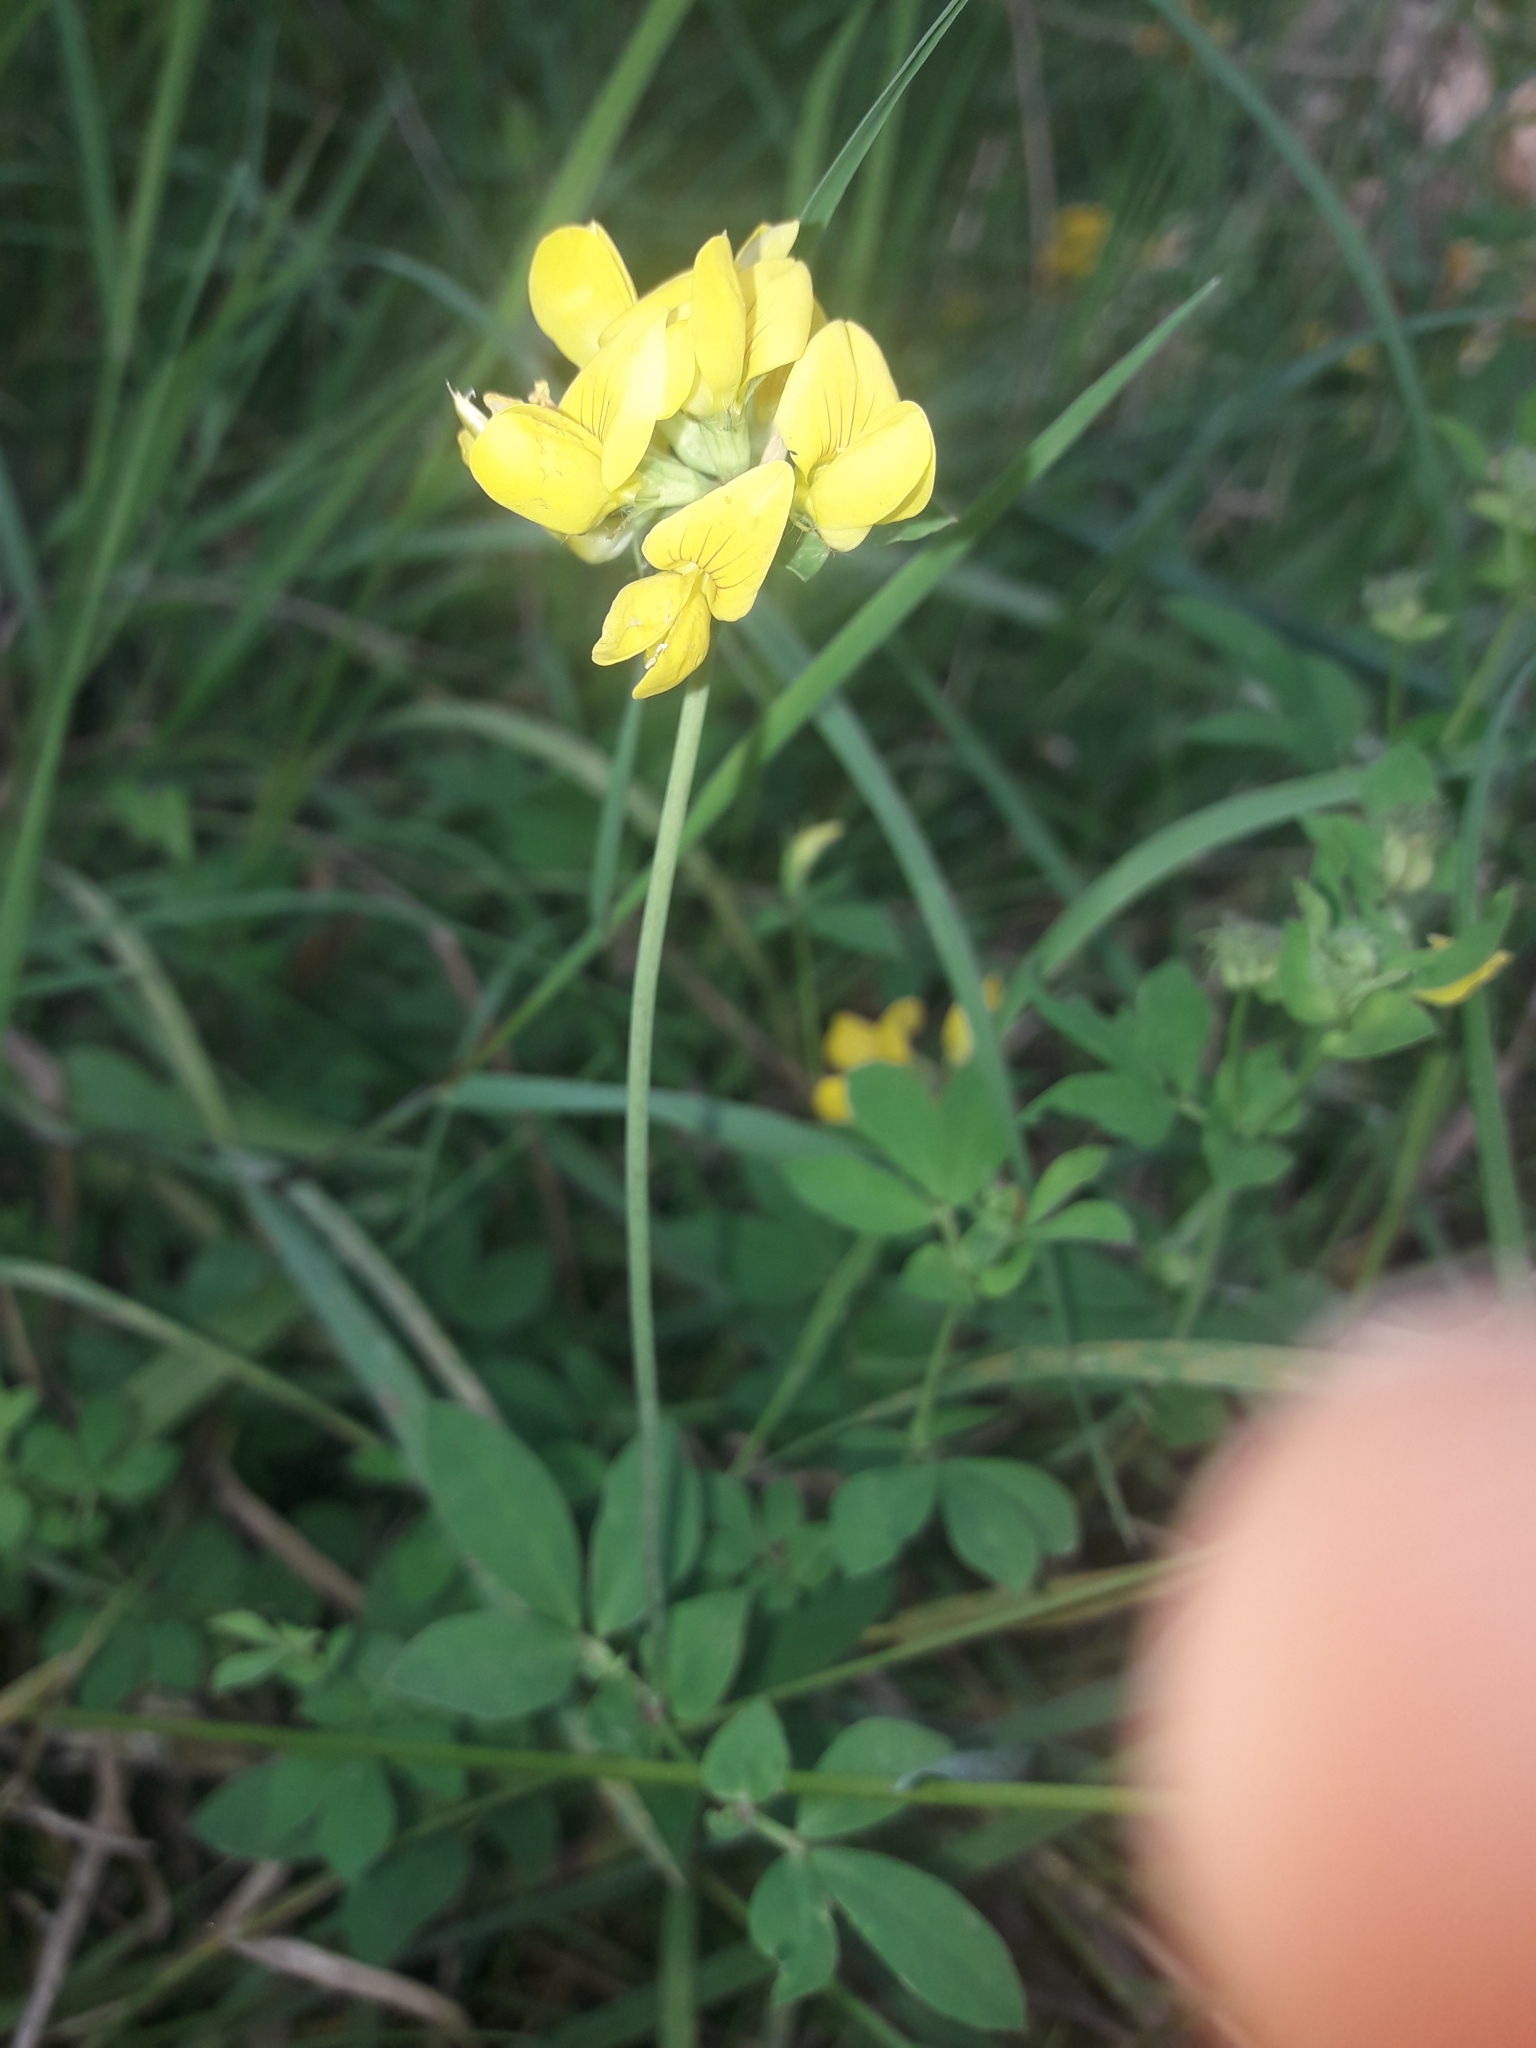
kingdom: Plantae
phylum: Tracheophyta
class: Magnoliopsida
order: Fabales
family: Fabaceae
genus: Lotus
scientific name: Lotus pedunculatus
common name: Greater birdsfoot-trefoil
